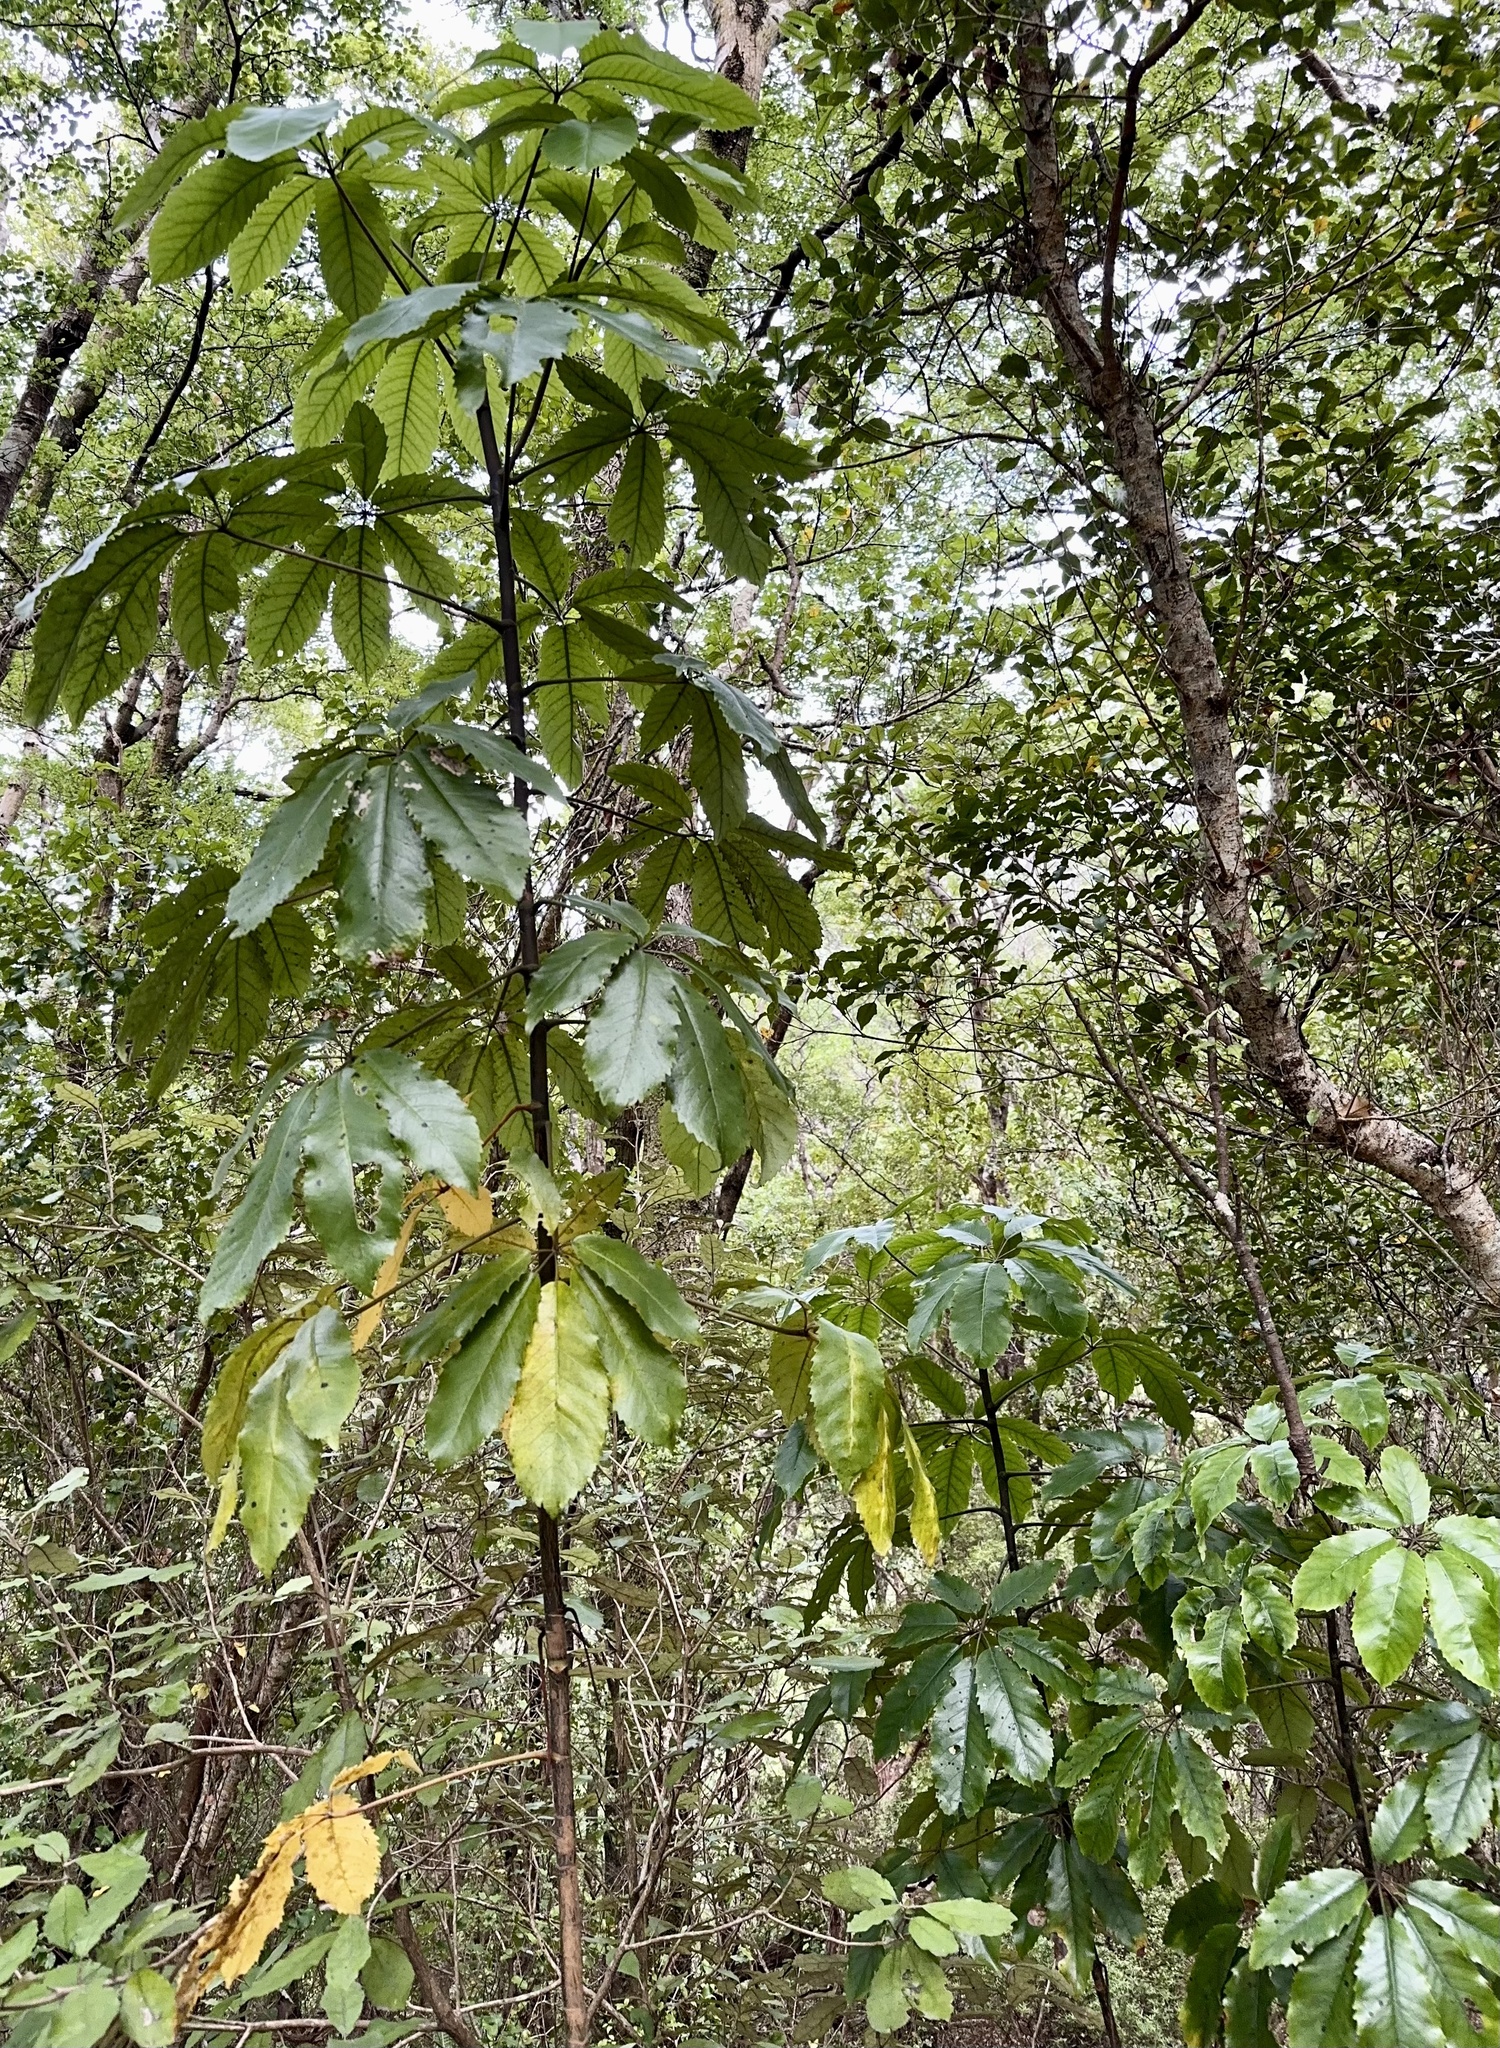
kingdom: Plantae
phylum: Tracheophyta
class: Magnoliopsida
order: Apiales
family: Araliaceae
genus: Neopanax
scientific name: Neopanax arboreus
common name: Five-fingers
